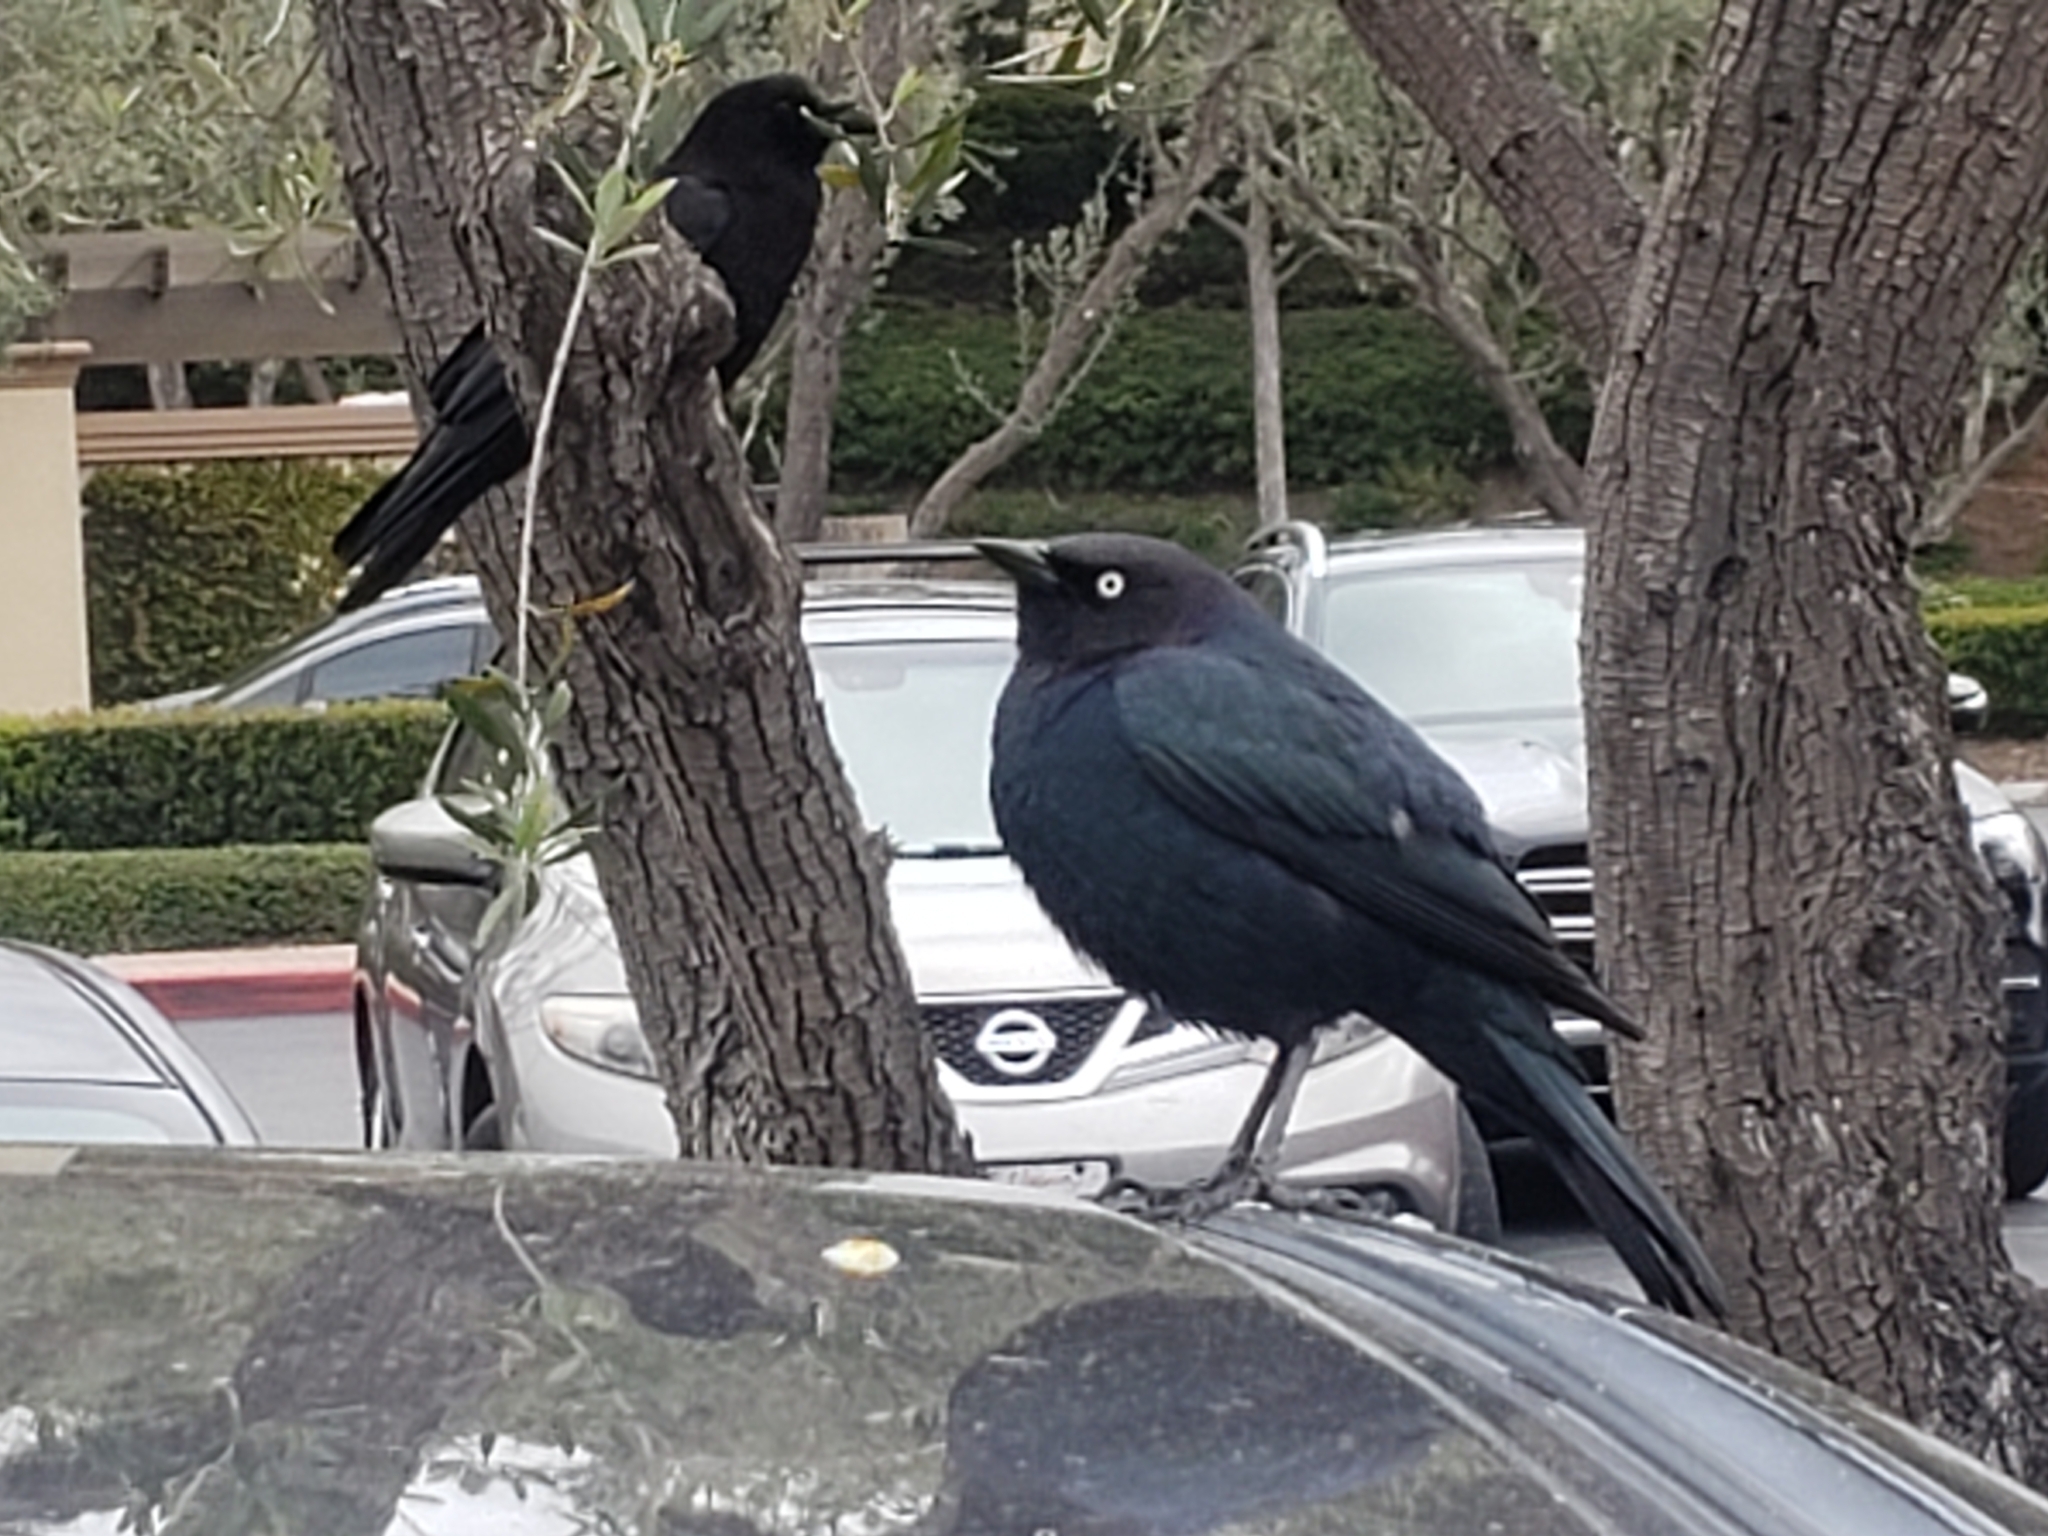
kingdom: Animalia
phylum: Chordata
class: Aves
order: Passeriformes
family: Icteridae
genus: Euphagus
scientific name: Euphagus cyanocephalus
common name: Brewer's blackbird
